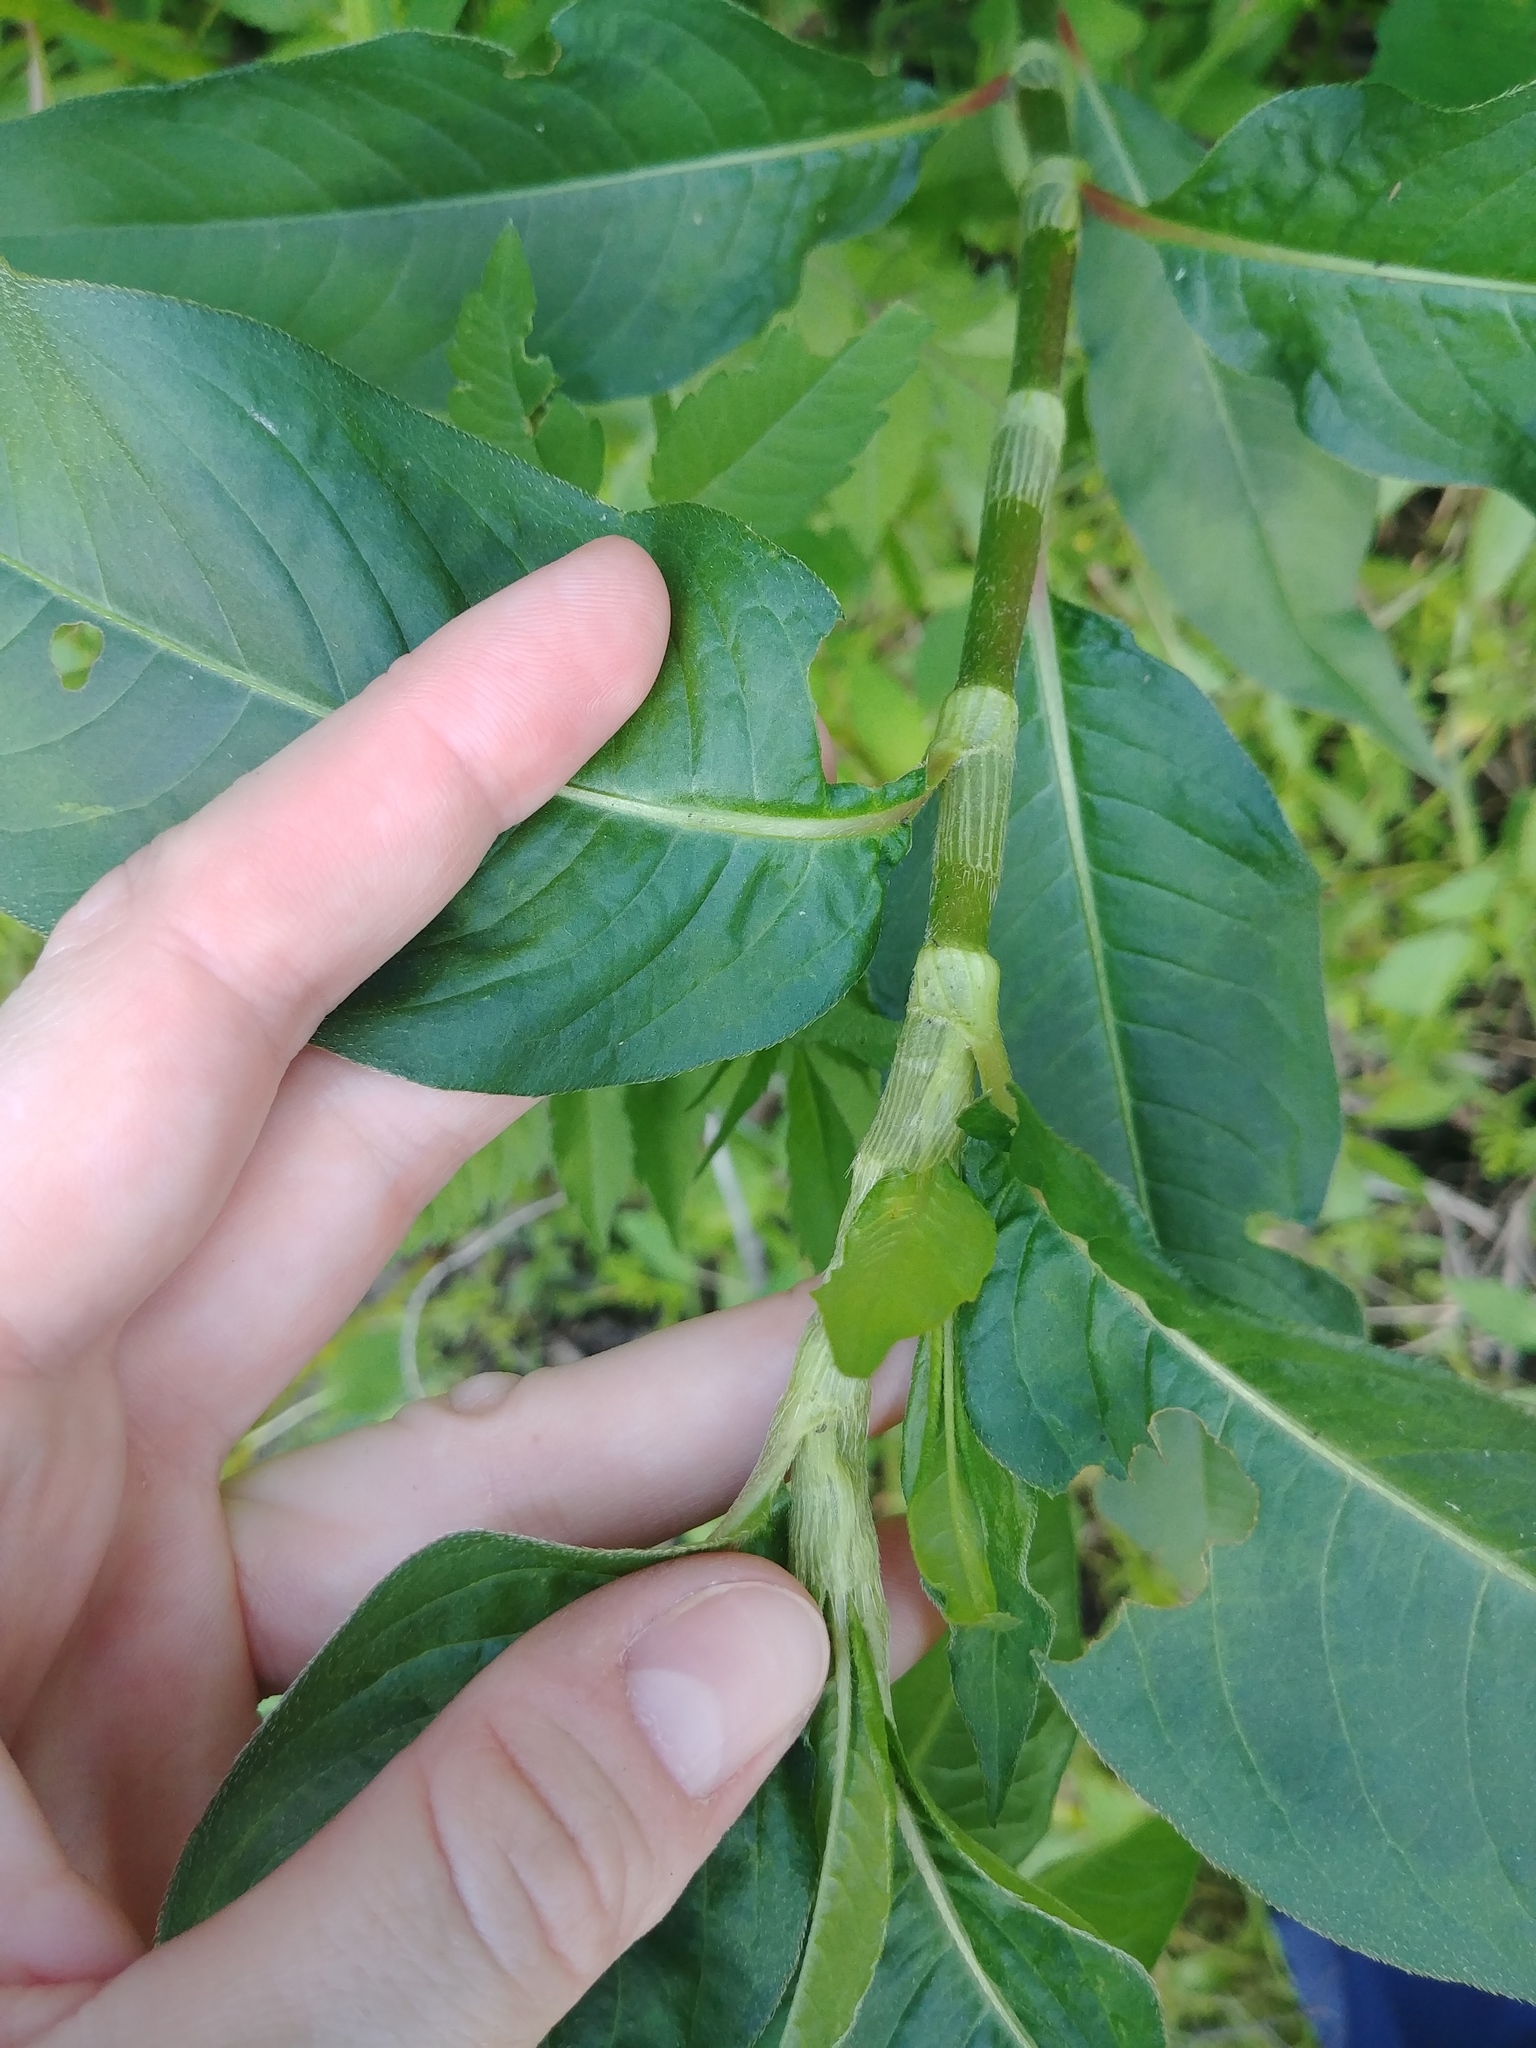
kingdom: Plantae
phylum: Tracheophyta
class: Magnoliopsida
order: Caryophyllales
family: Polygonaceae
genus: Persicaria
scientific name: Persicaria extremiorientalis
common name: Far-eastern smartweed
